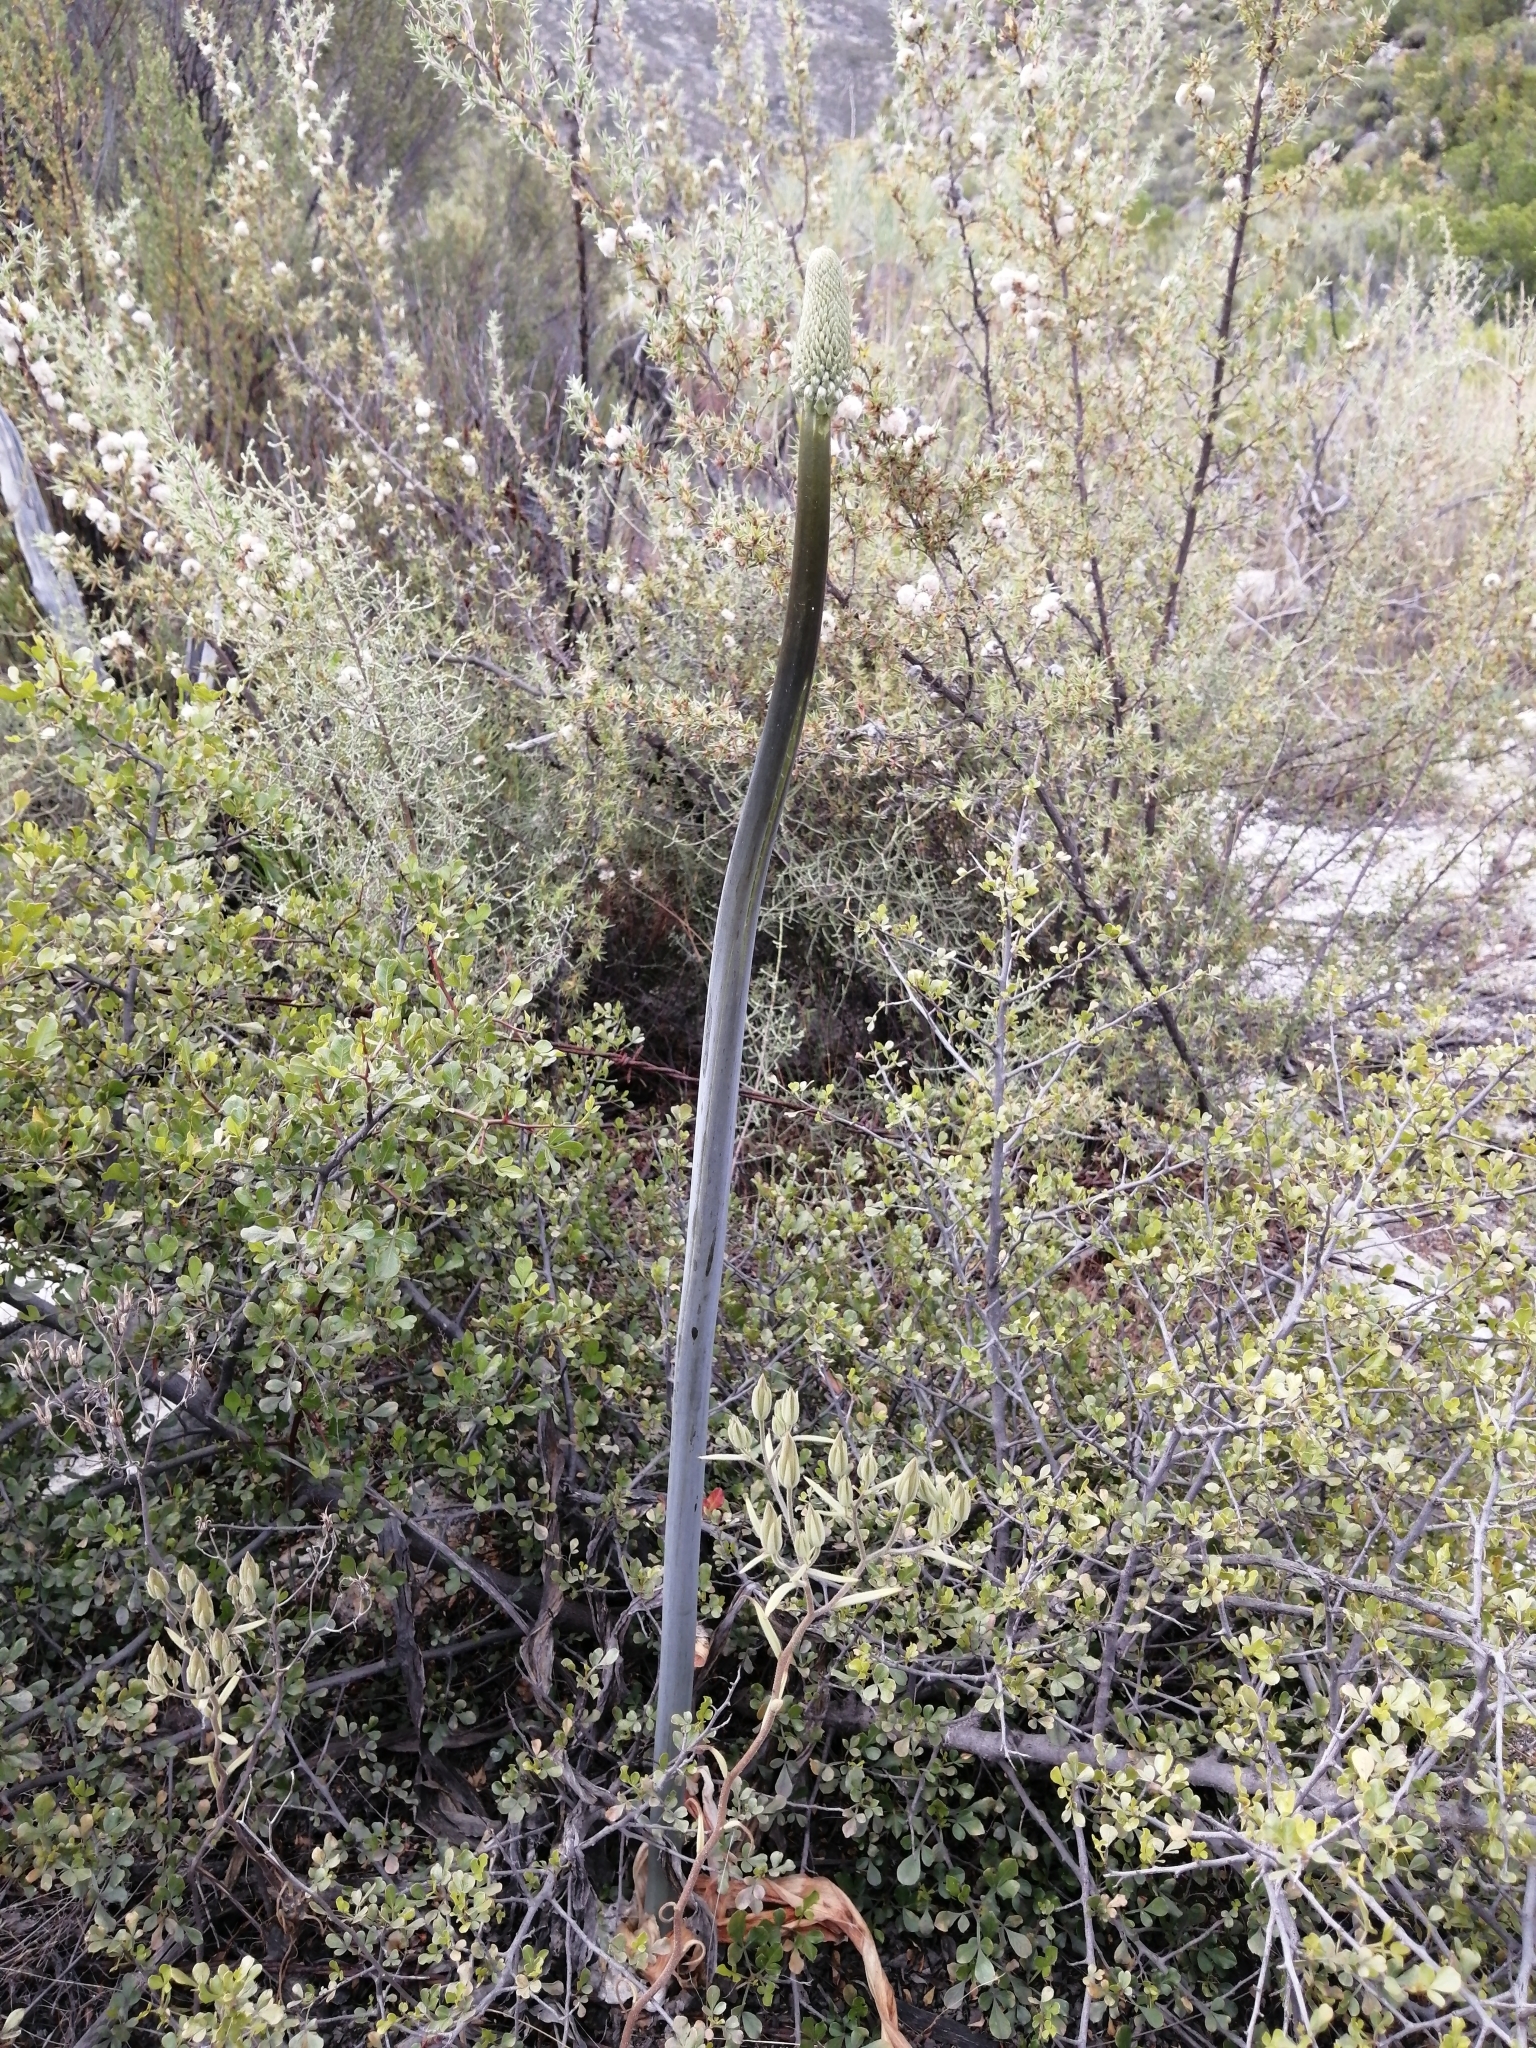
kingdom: Plantae
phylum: Tracheophyta
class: Liliopsida
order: Asparagales
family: Asparagaceae
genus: Drimia
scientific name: Drimia capensis
